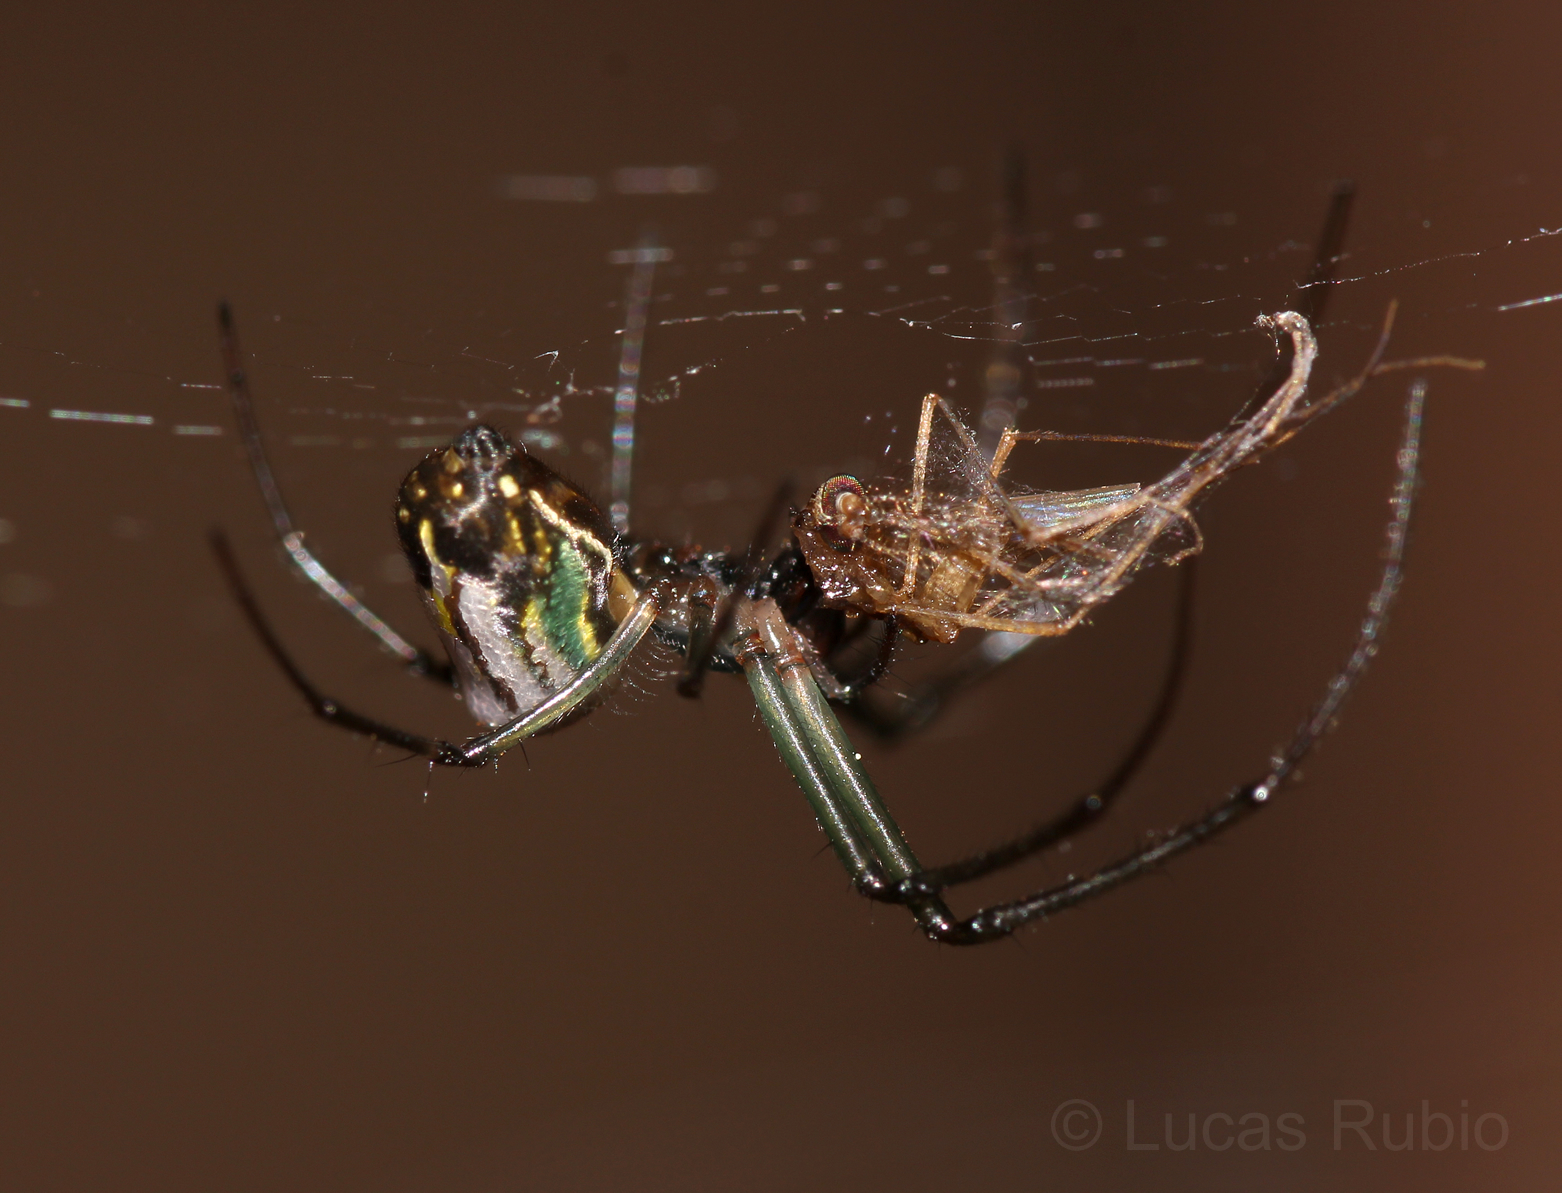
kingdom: Animalia
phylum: Arthropoda
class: Arachnida
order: Araneae
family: Tetragnathidae
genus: Leucauge
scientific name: Leucauge volupis
